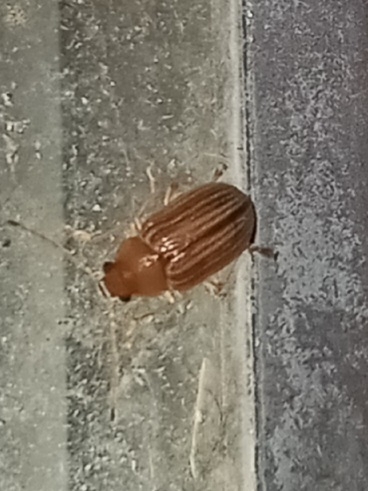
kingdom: Animalia
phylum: Arthropoda
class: Insecta
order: Coleoptera
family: Chrysomelidae
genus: Colaspis
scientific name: Colaspis brunnea
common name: Grape colaspis
